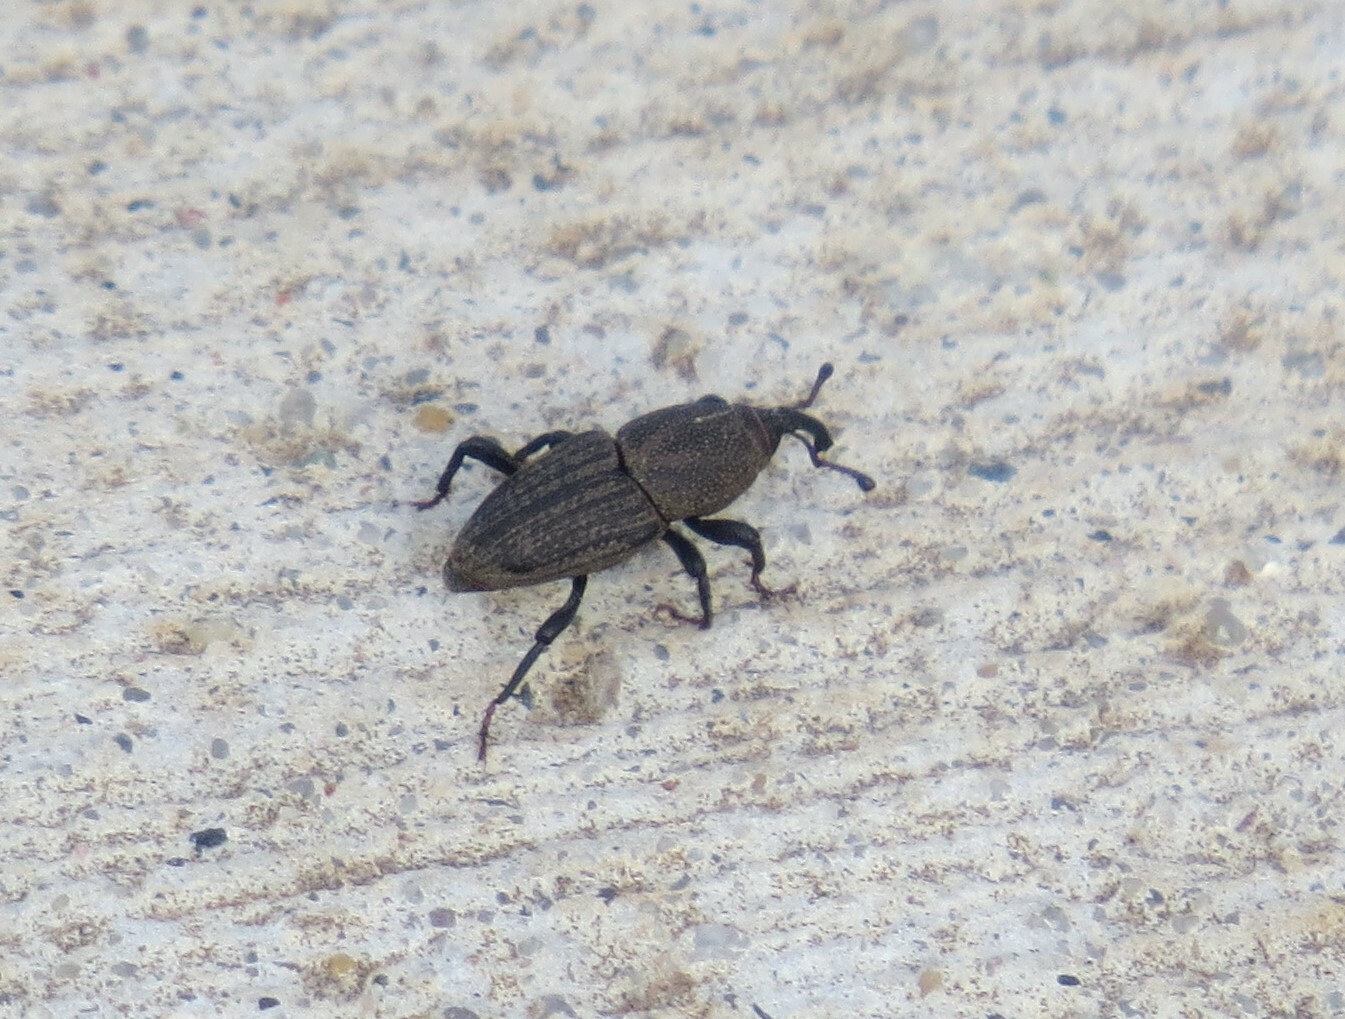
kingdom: Animalia
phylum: Arthropoda
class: Insecta
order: Coleoptera
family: Dryophthoridae
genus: Sphenophorus
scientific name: Sphenophorus interstitialis
